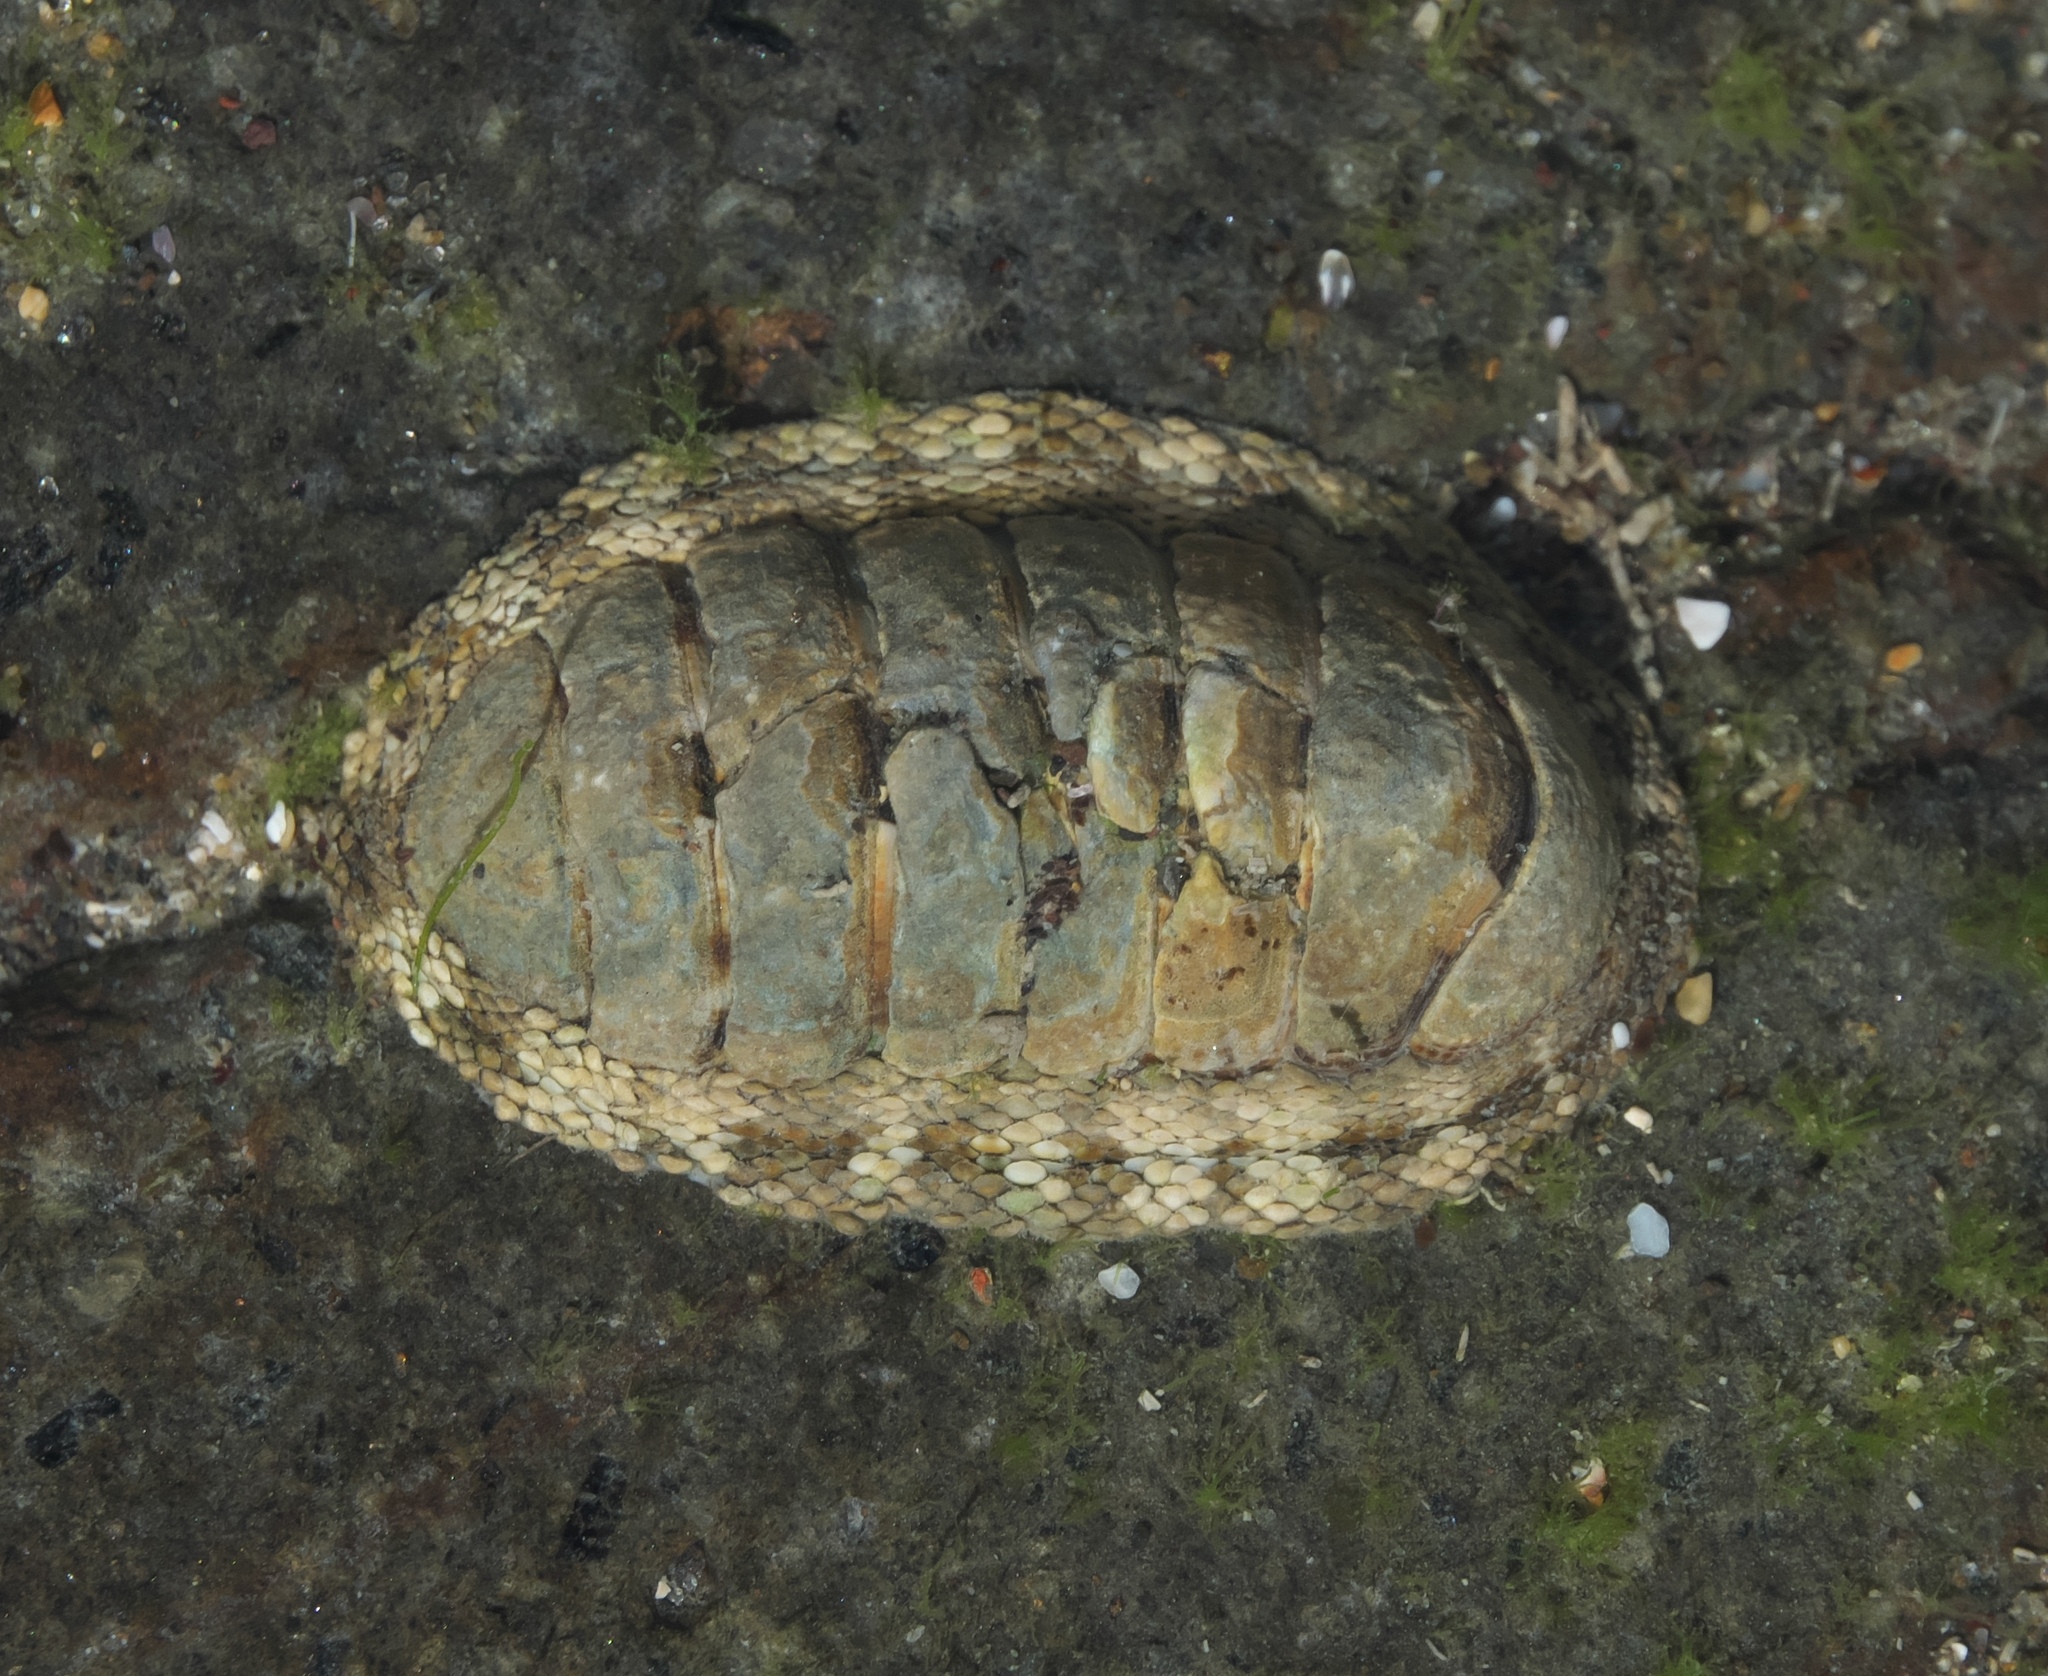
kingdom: Animalia
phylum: Mollusca
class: Polyplacophora
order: Chitonida
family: Chitonidae
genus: Sypharochiton
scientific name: Sypharochiton pelliserpentis
